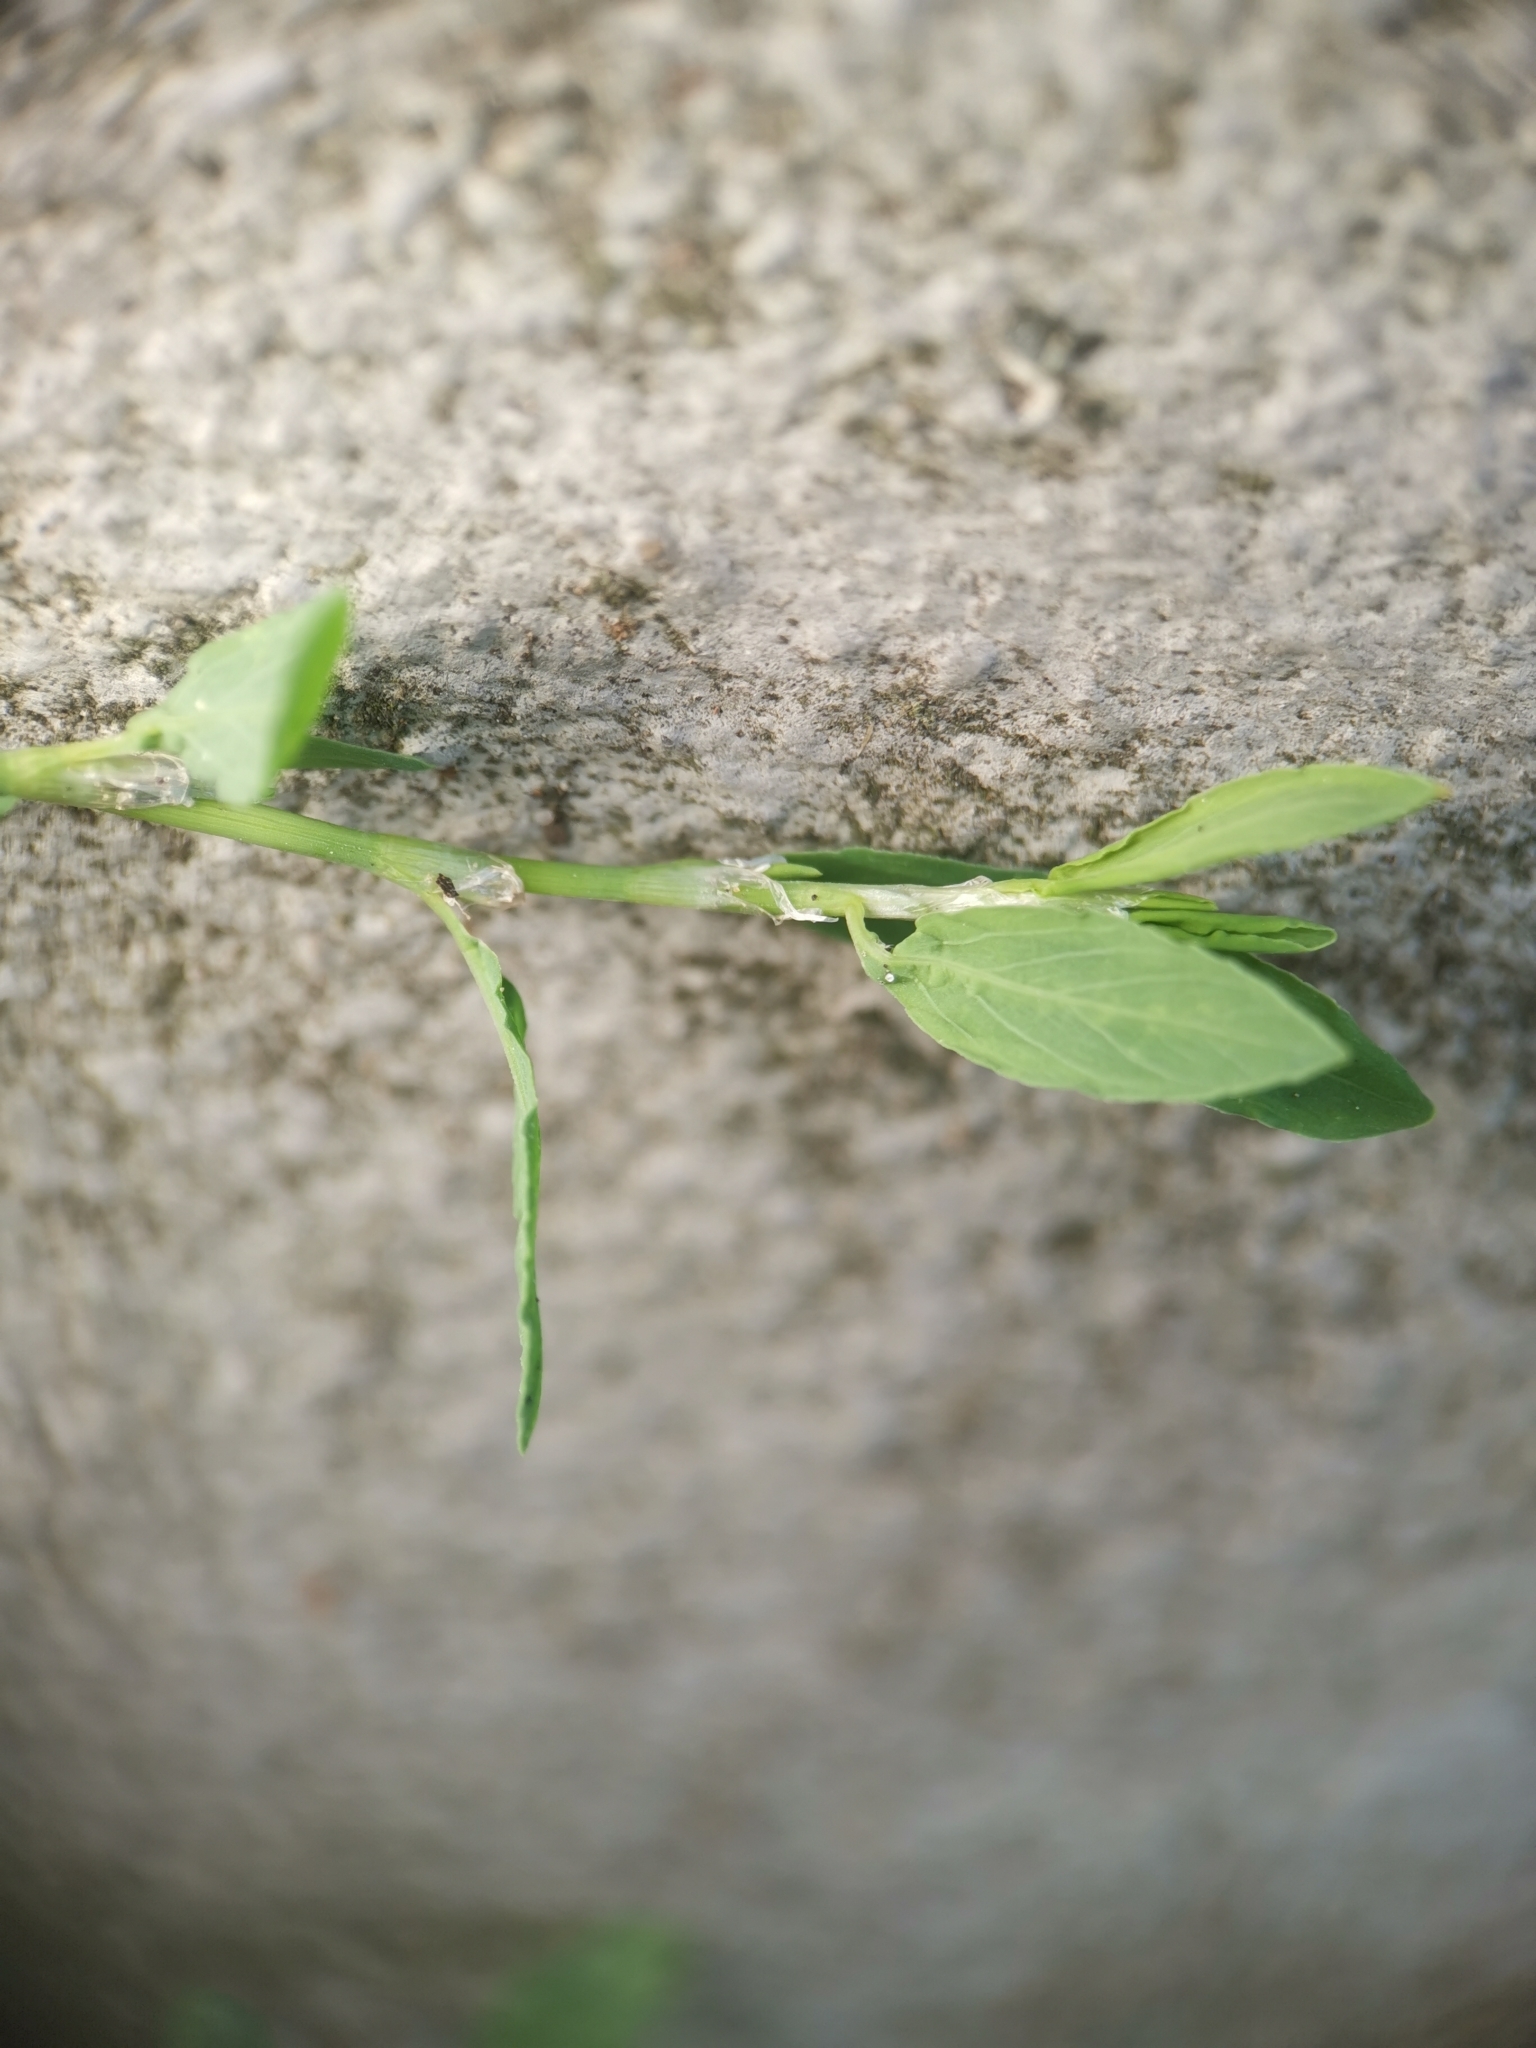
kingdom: Plantae
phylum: Tracheophyta
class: Magnoliopsida
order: Caryophyllales
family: Polygonaceae
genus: Polygonum
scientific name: Polygonum aviculare
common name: Prostrate knotweed
